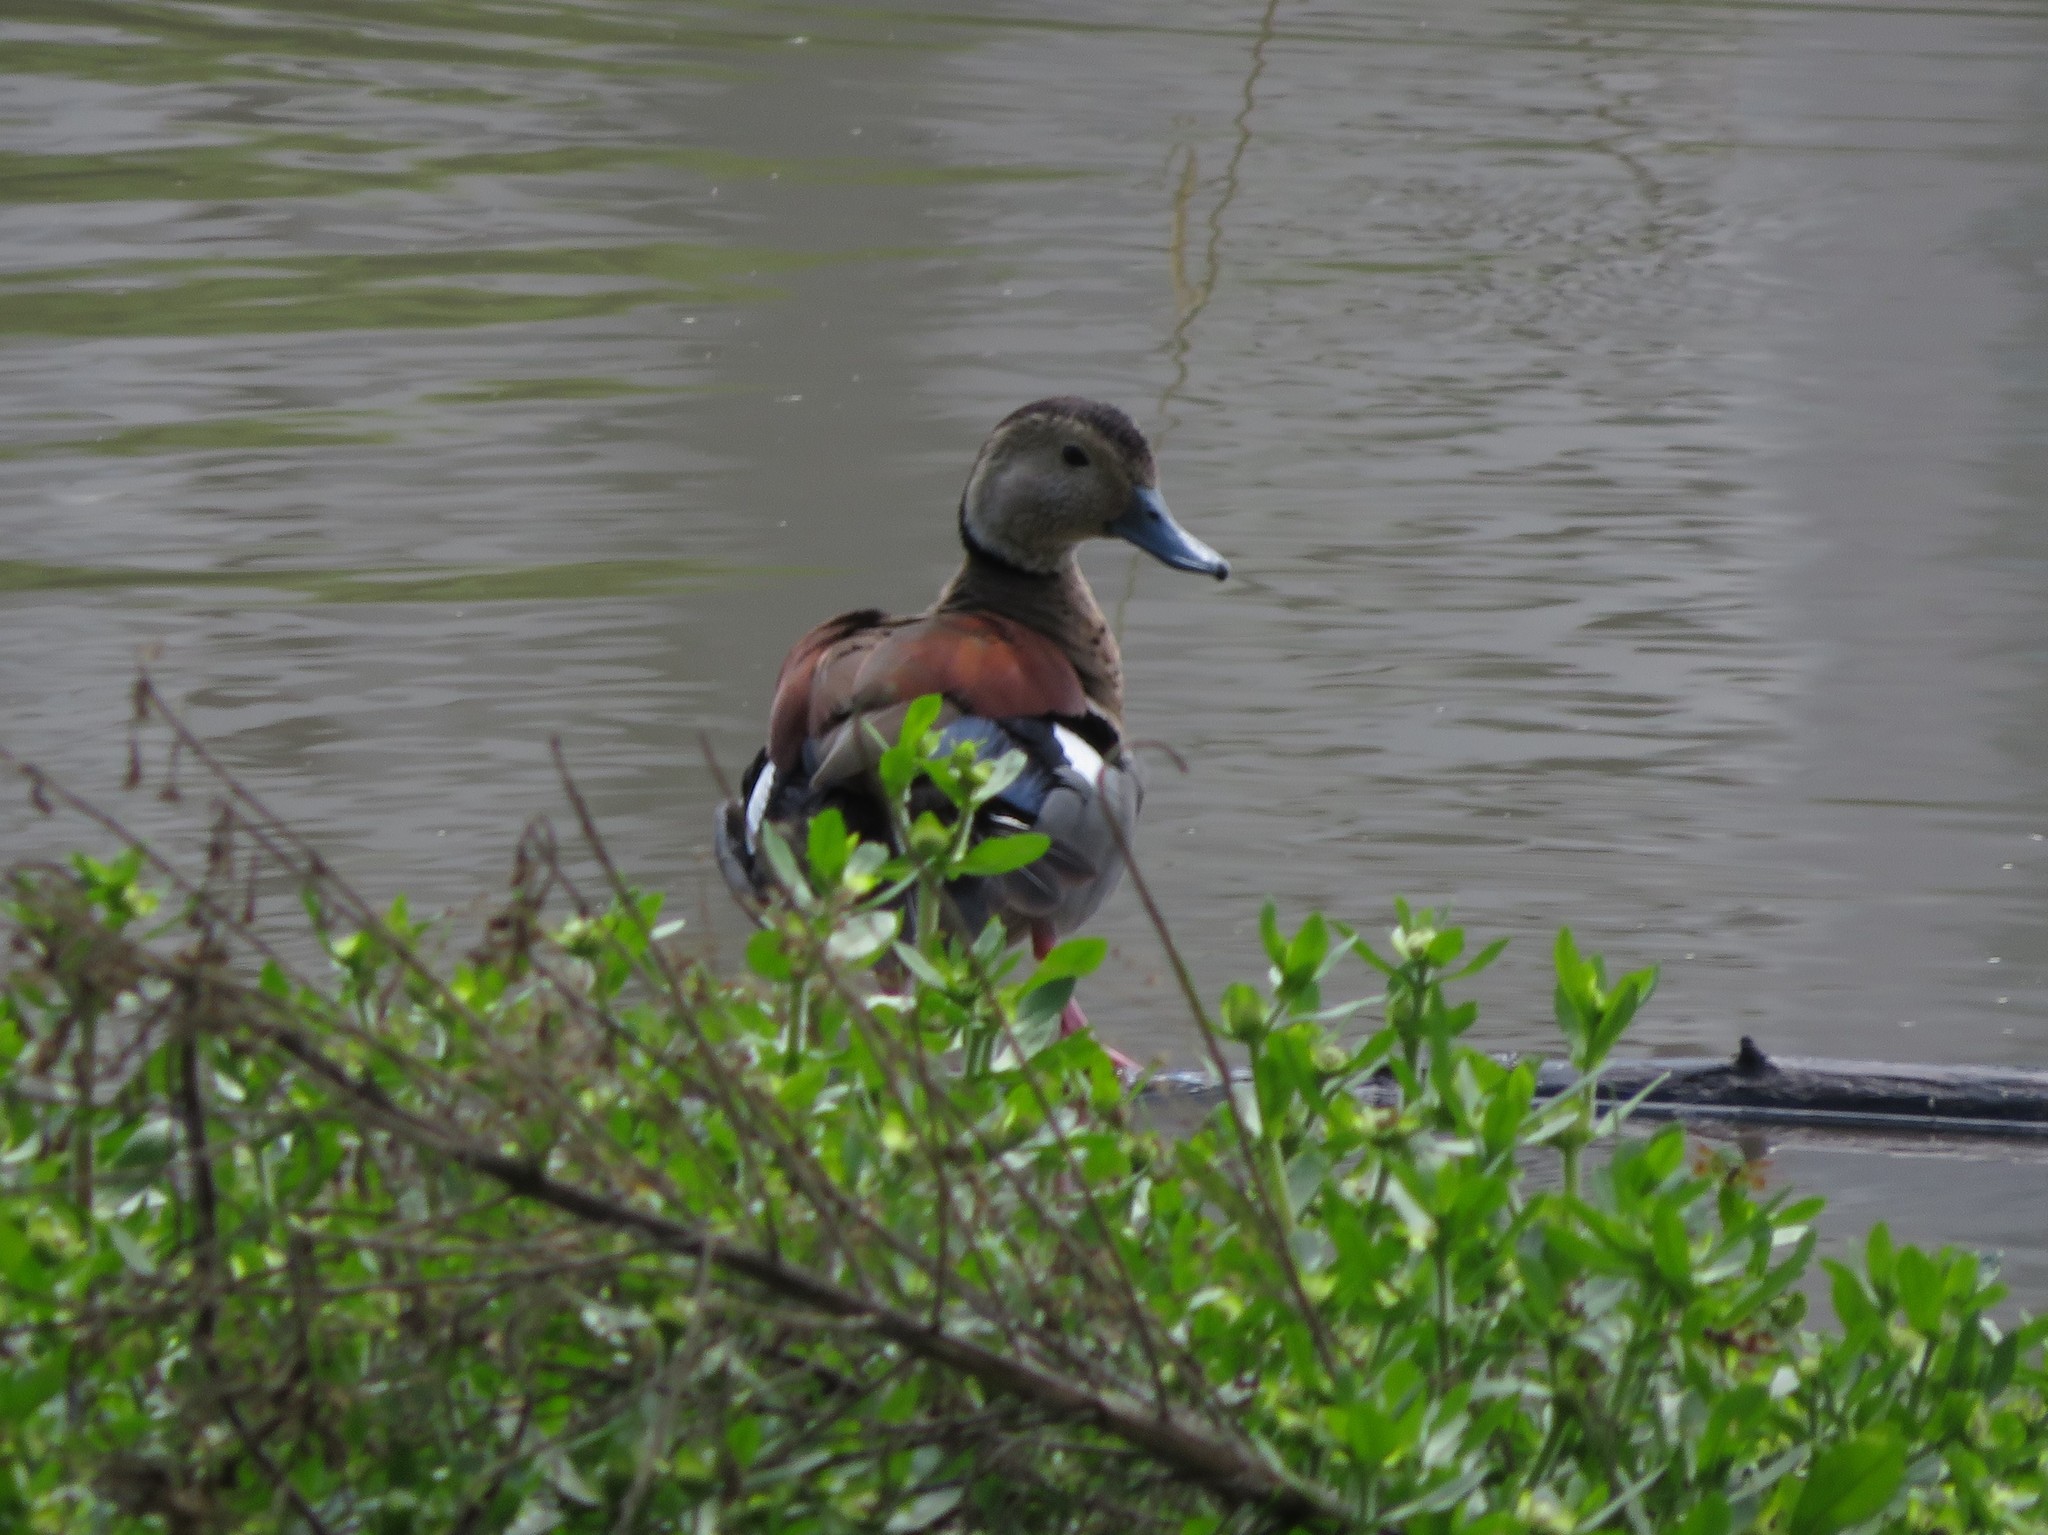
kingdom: Animalia
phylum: Chordata
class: Aves
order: Anseriformes
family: Anatidae
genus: Callonetta
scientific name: Callonetta leucophrys
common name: Ringed teal
